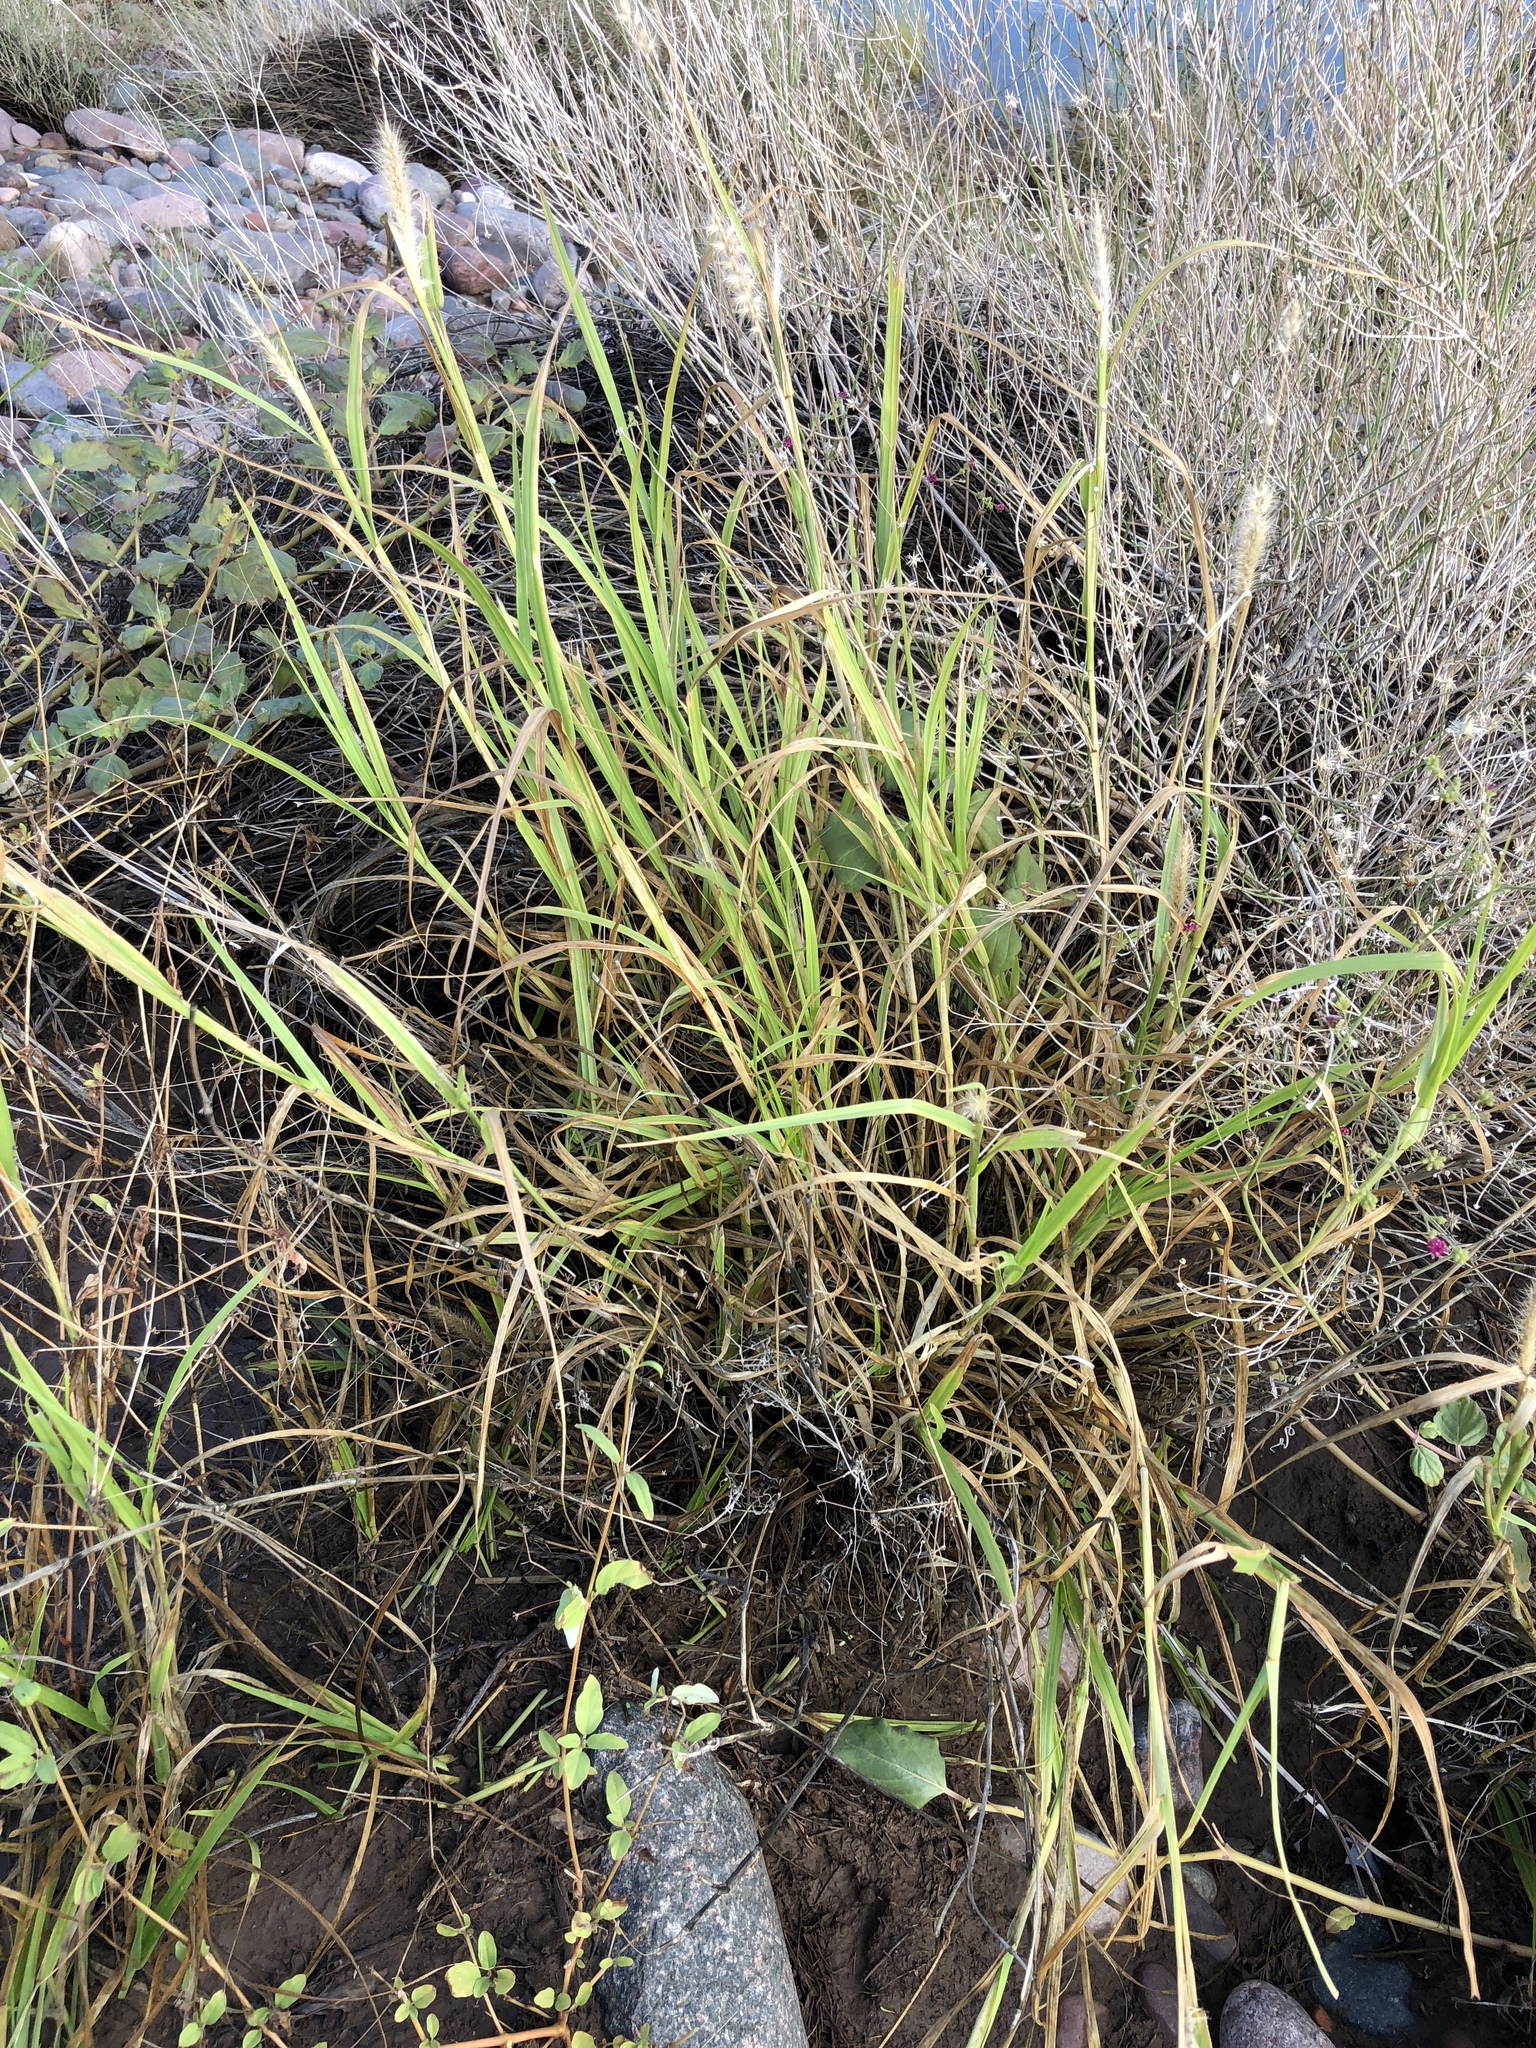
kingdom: Plantae
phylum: Tracheophyta
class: Liliopsida
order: Poales
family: Poaceae
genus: Cenchrus
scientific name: Cenchrus ciliaris
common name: Buffelgrass
